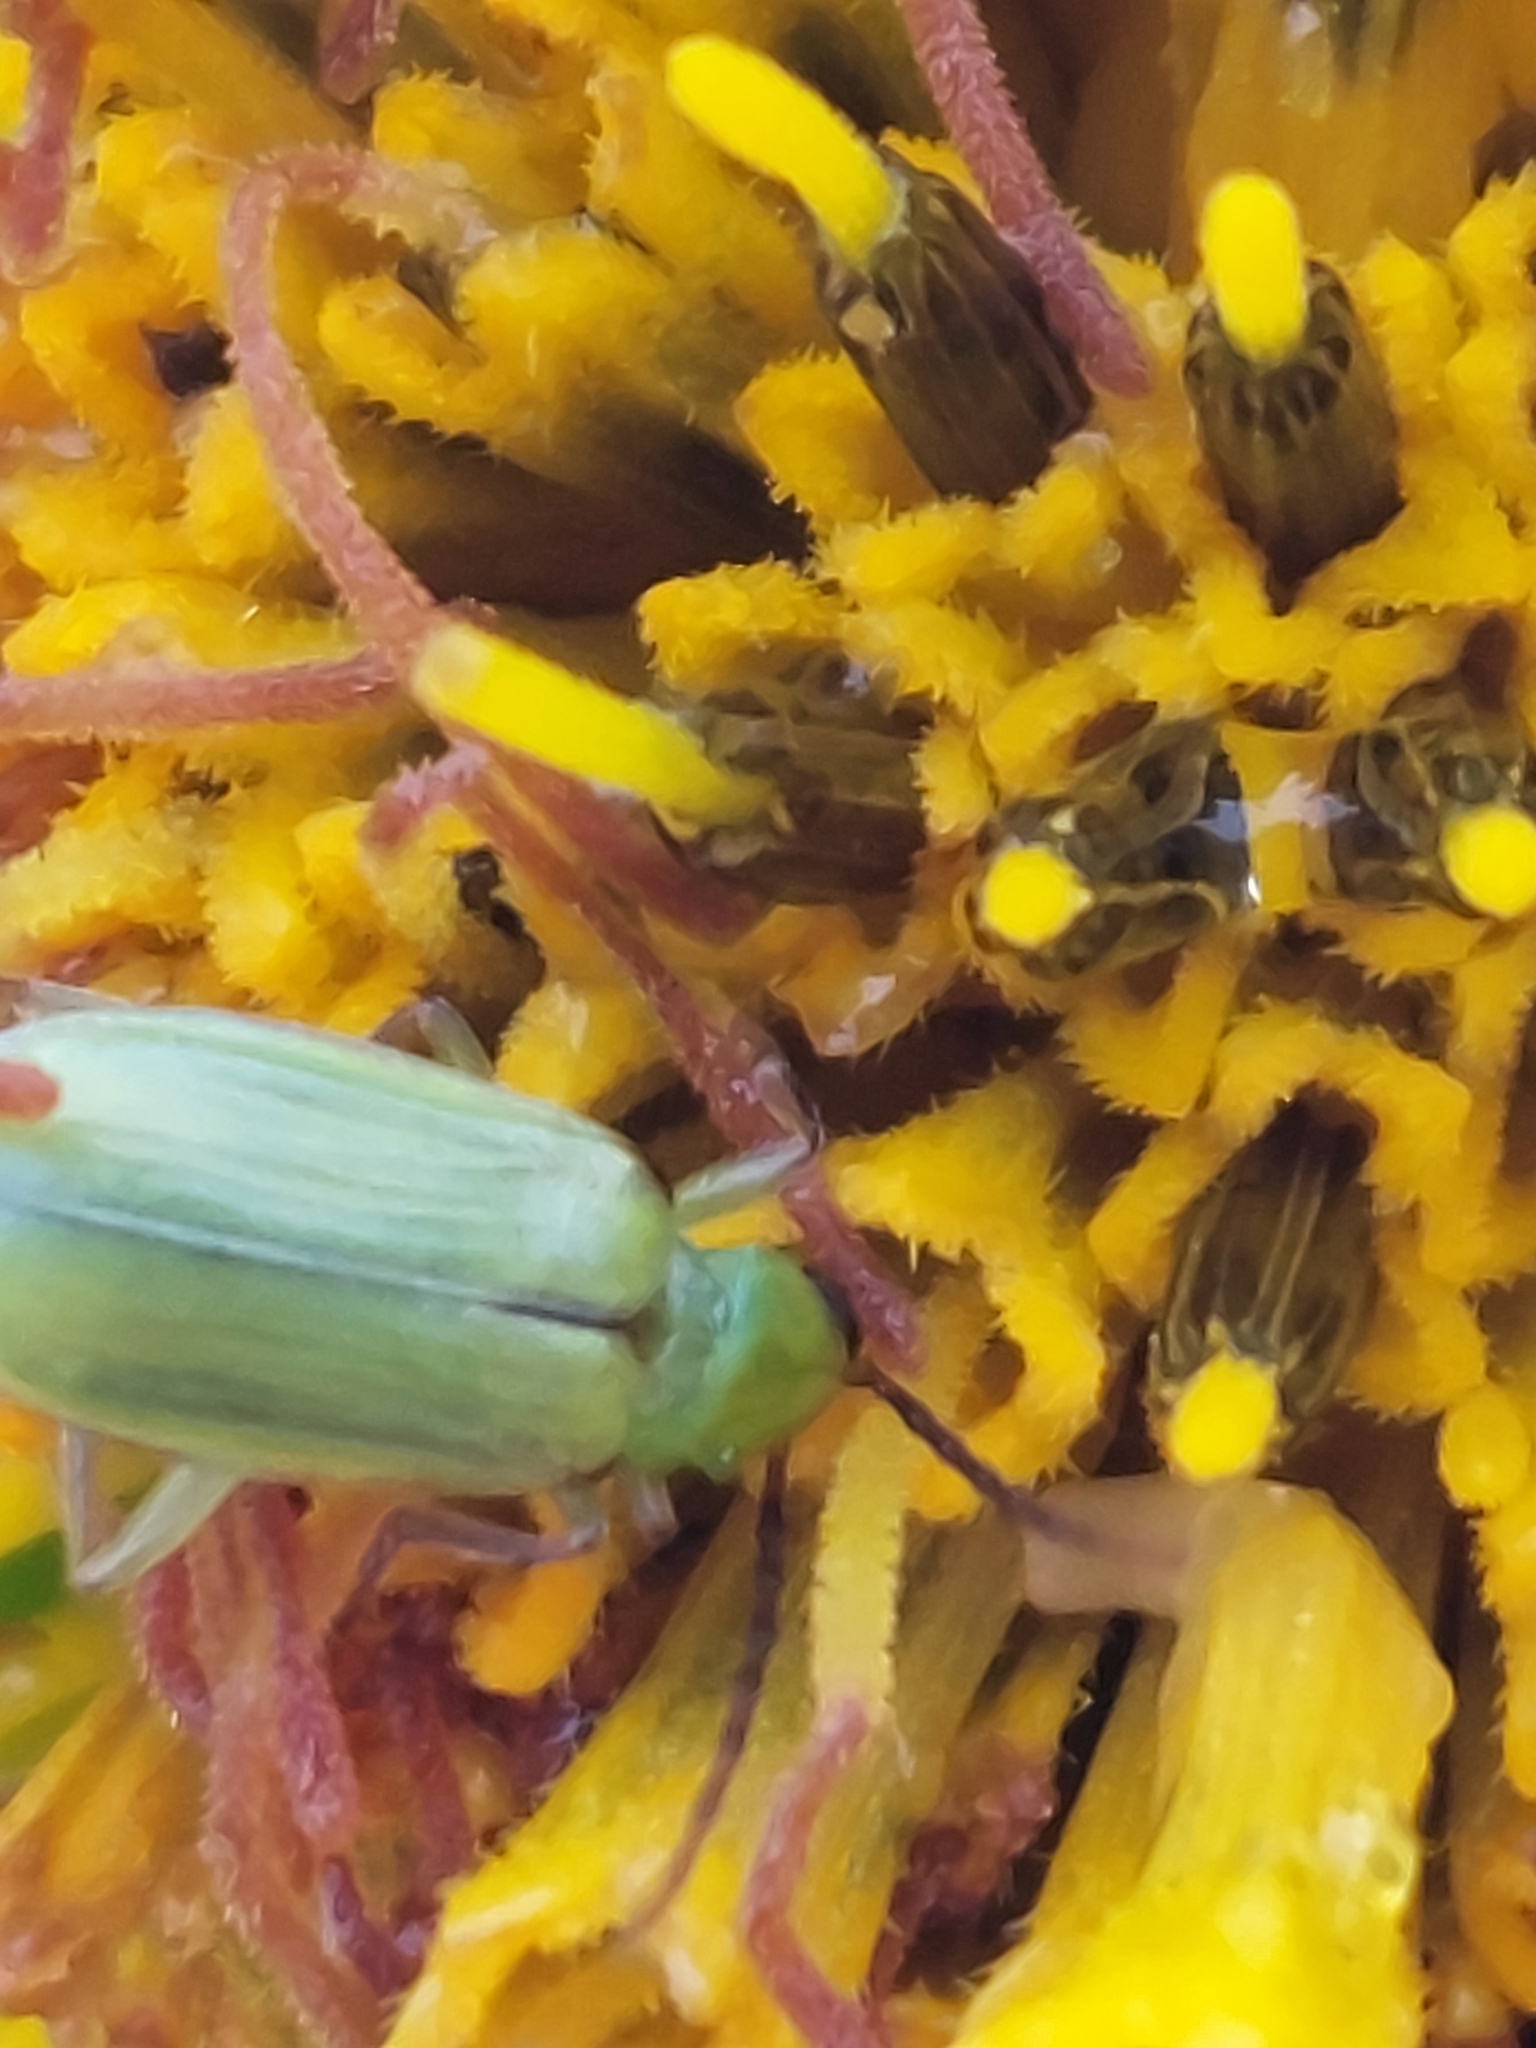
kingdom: Animalia
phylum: Arthropoda
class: Insecta
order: Coleoptera
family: Chrysomelidae
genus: Diabrotica
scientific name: Diabrotica barberi
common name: Northern corn rootworm
